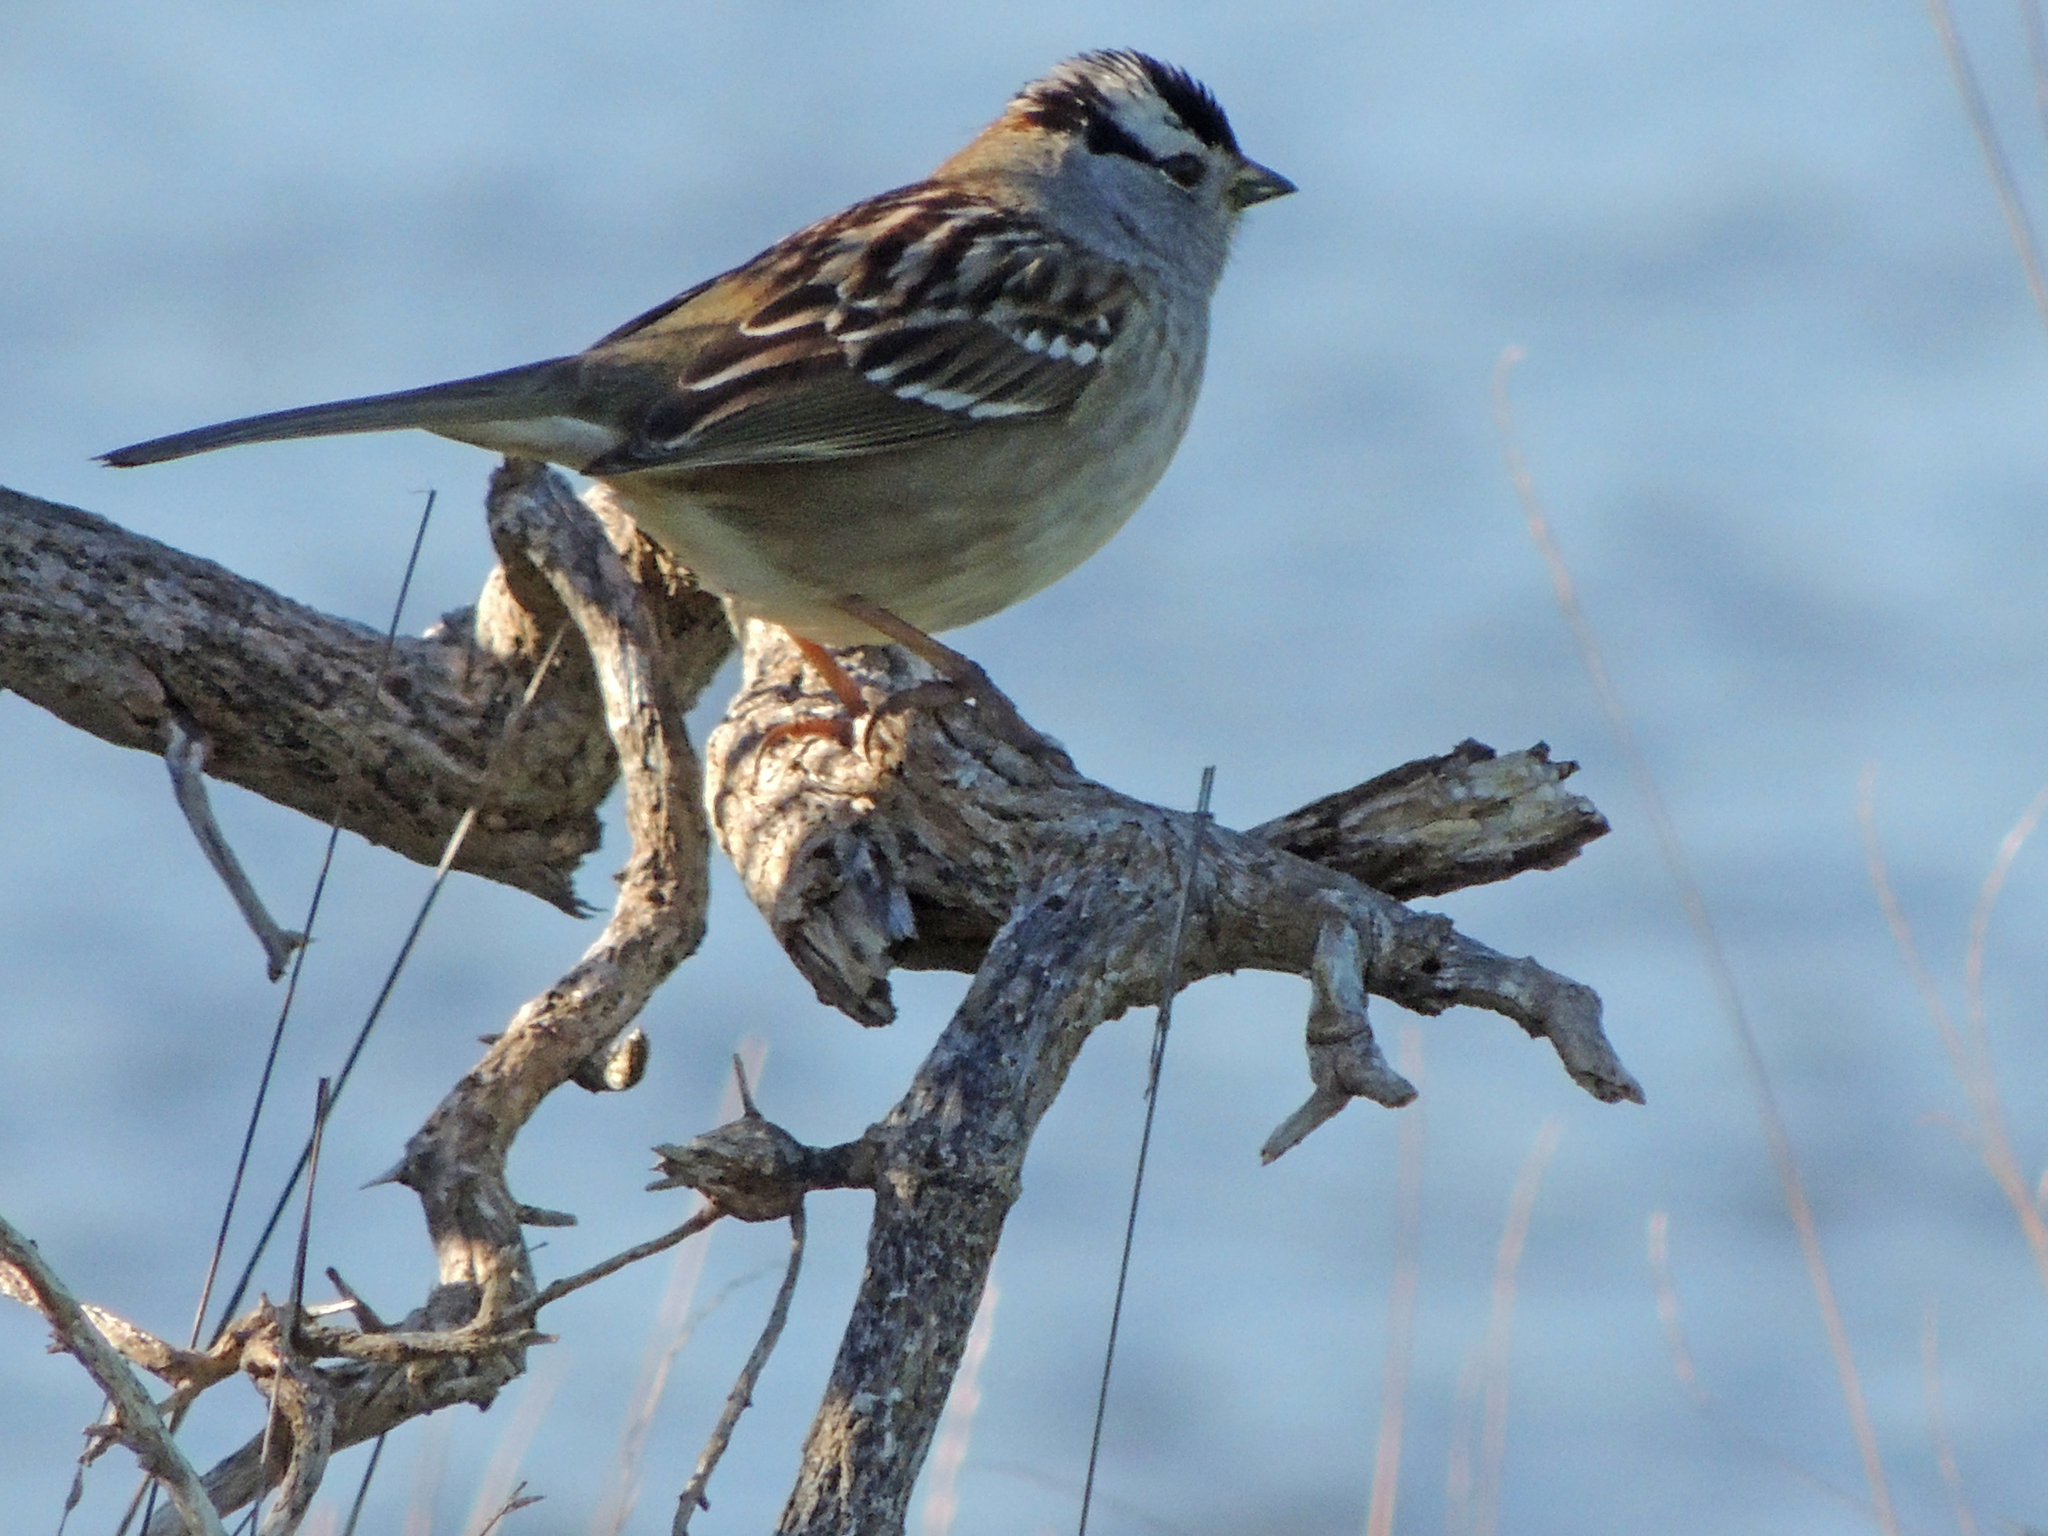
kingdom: Animalia
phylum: Chordata
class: Aves
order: Passeriformes
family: Passerellidae
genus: Zonotrichia
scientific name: Zonotrichia leucophrys
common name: White-crowned sparrow
